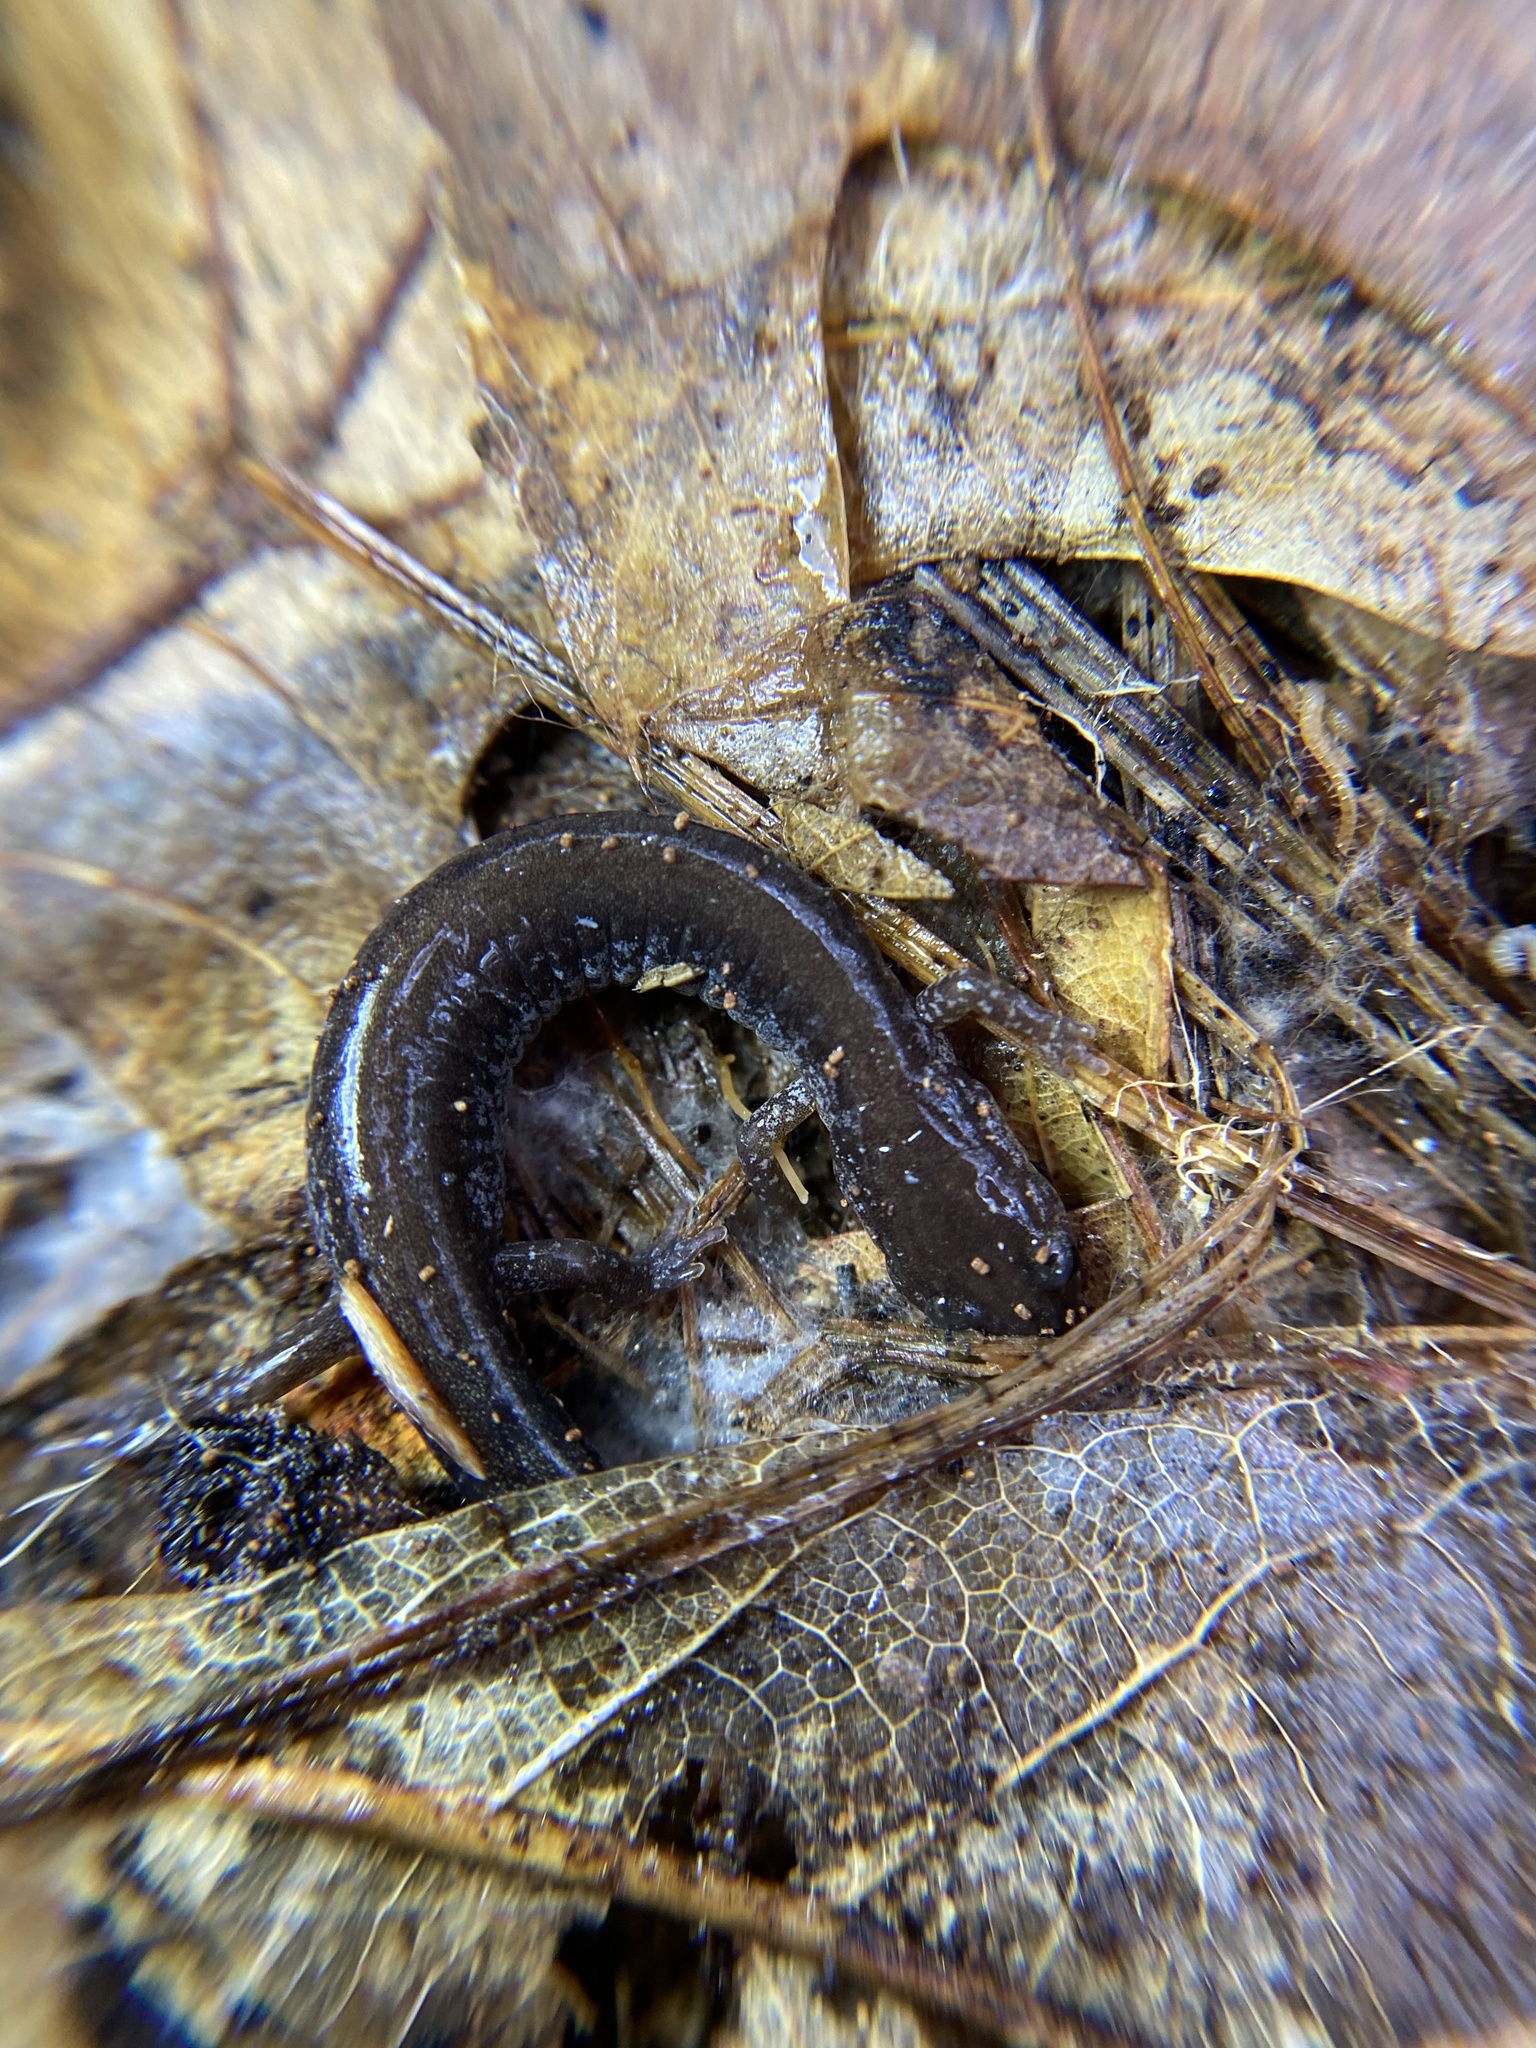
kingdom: Animalia
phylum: Chordata
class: Amphibia
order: Caudata
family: Plethodontidae
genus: Plethodon
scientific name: Plethodon cinereus
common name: Redback salamander
